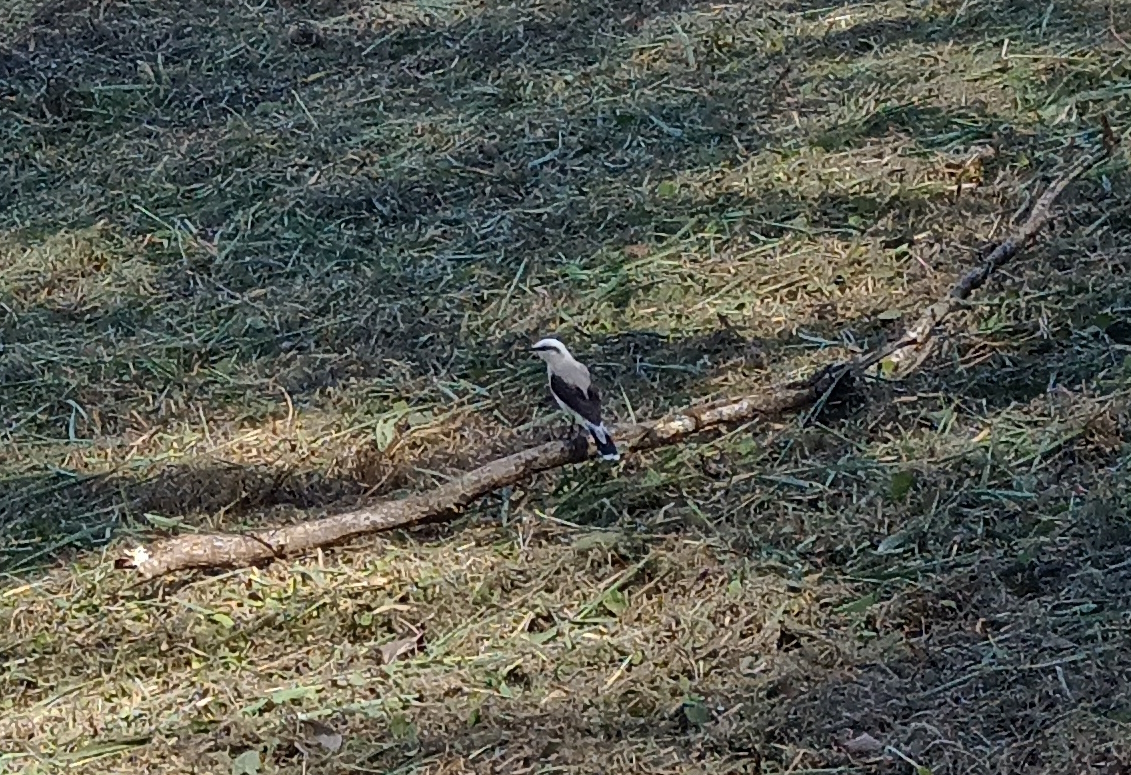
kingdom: Animalia
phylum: Chordata
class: Aves
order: Passeriformes
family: Tyrannidae
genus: Fluvicola
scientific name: Fluvicola nengeta
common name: Masked water tyrant
